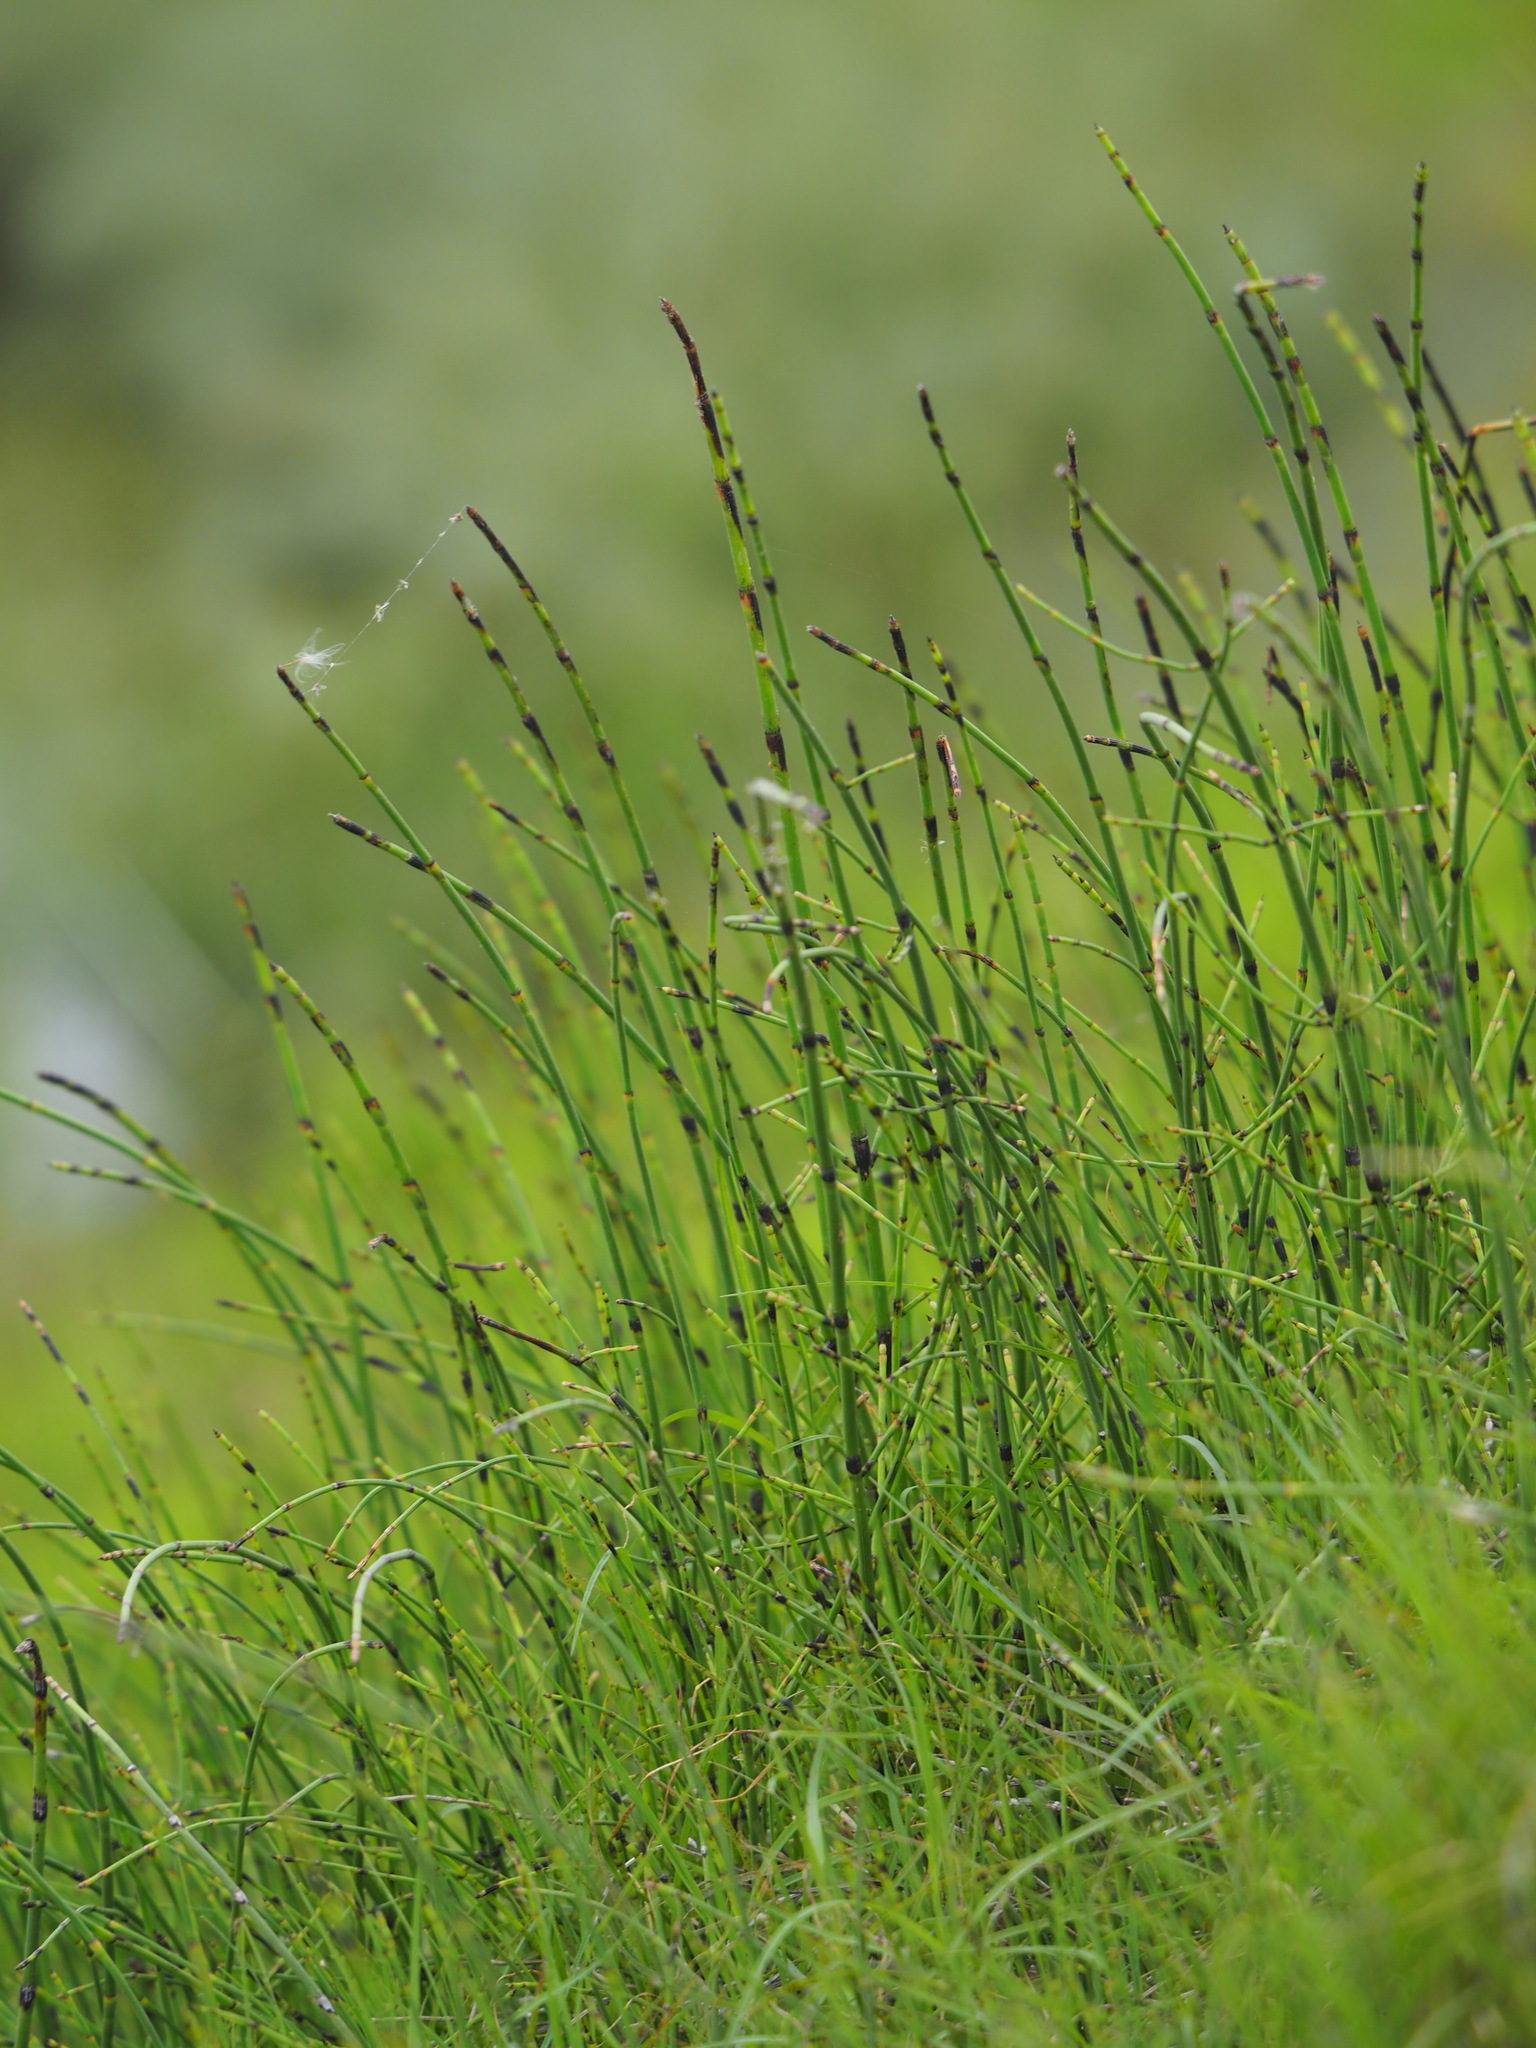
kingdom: Plantae
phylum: Tracheophyta
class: Polypodiopsida
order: Equisetales
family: Equisetaceae
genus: Equisetum
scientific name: Equisetum ramosissimum
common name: Branched horsetail
